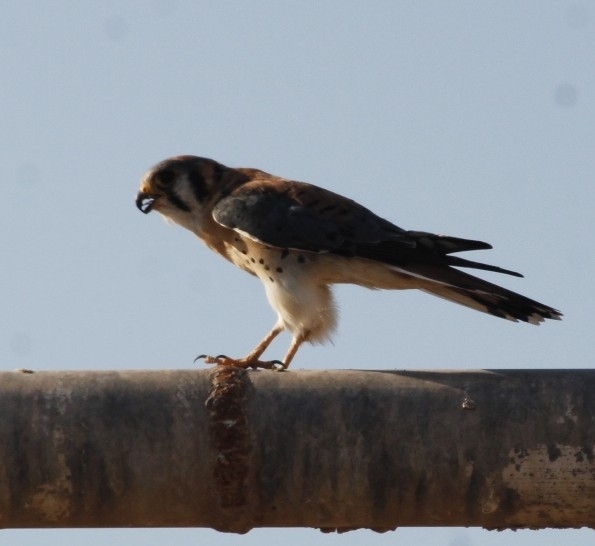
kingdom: Animalia
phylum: Chordata
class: Aves
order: Falconiformes
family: Falconidae
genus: Falco
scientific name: Falco sparverius
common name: American kestrel
